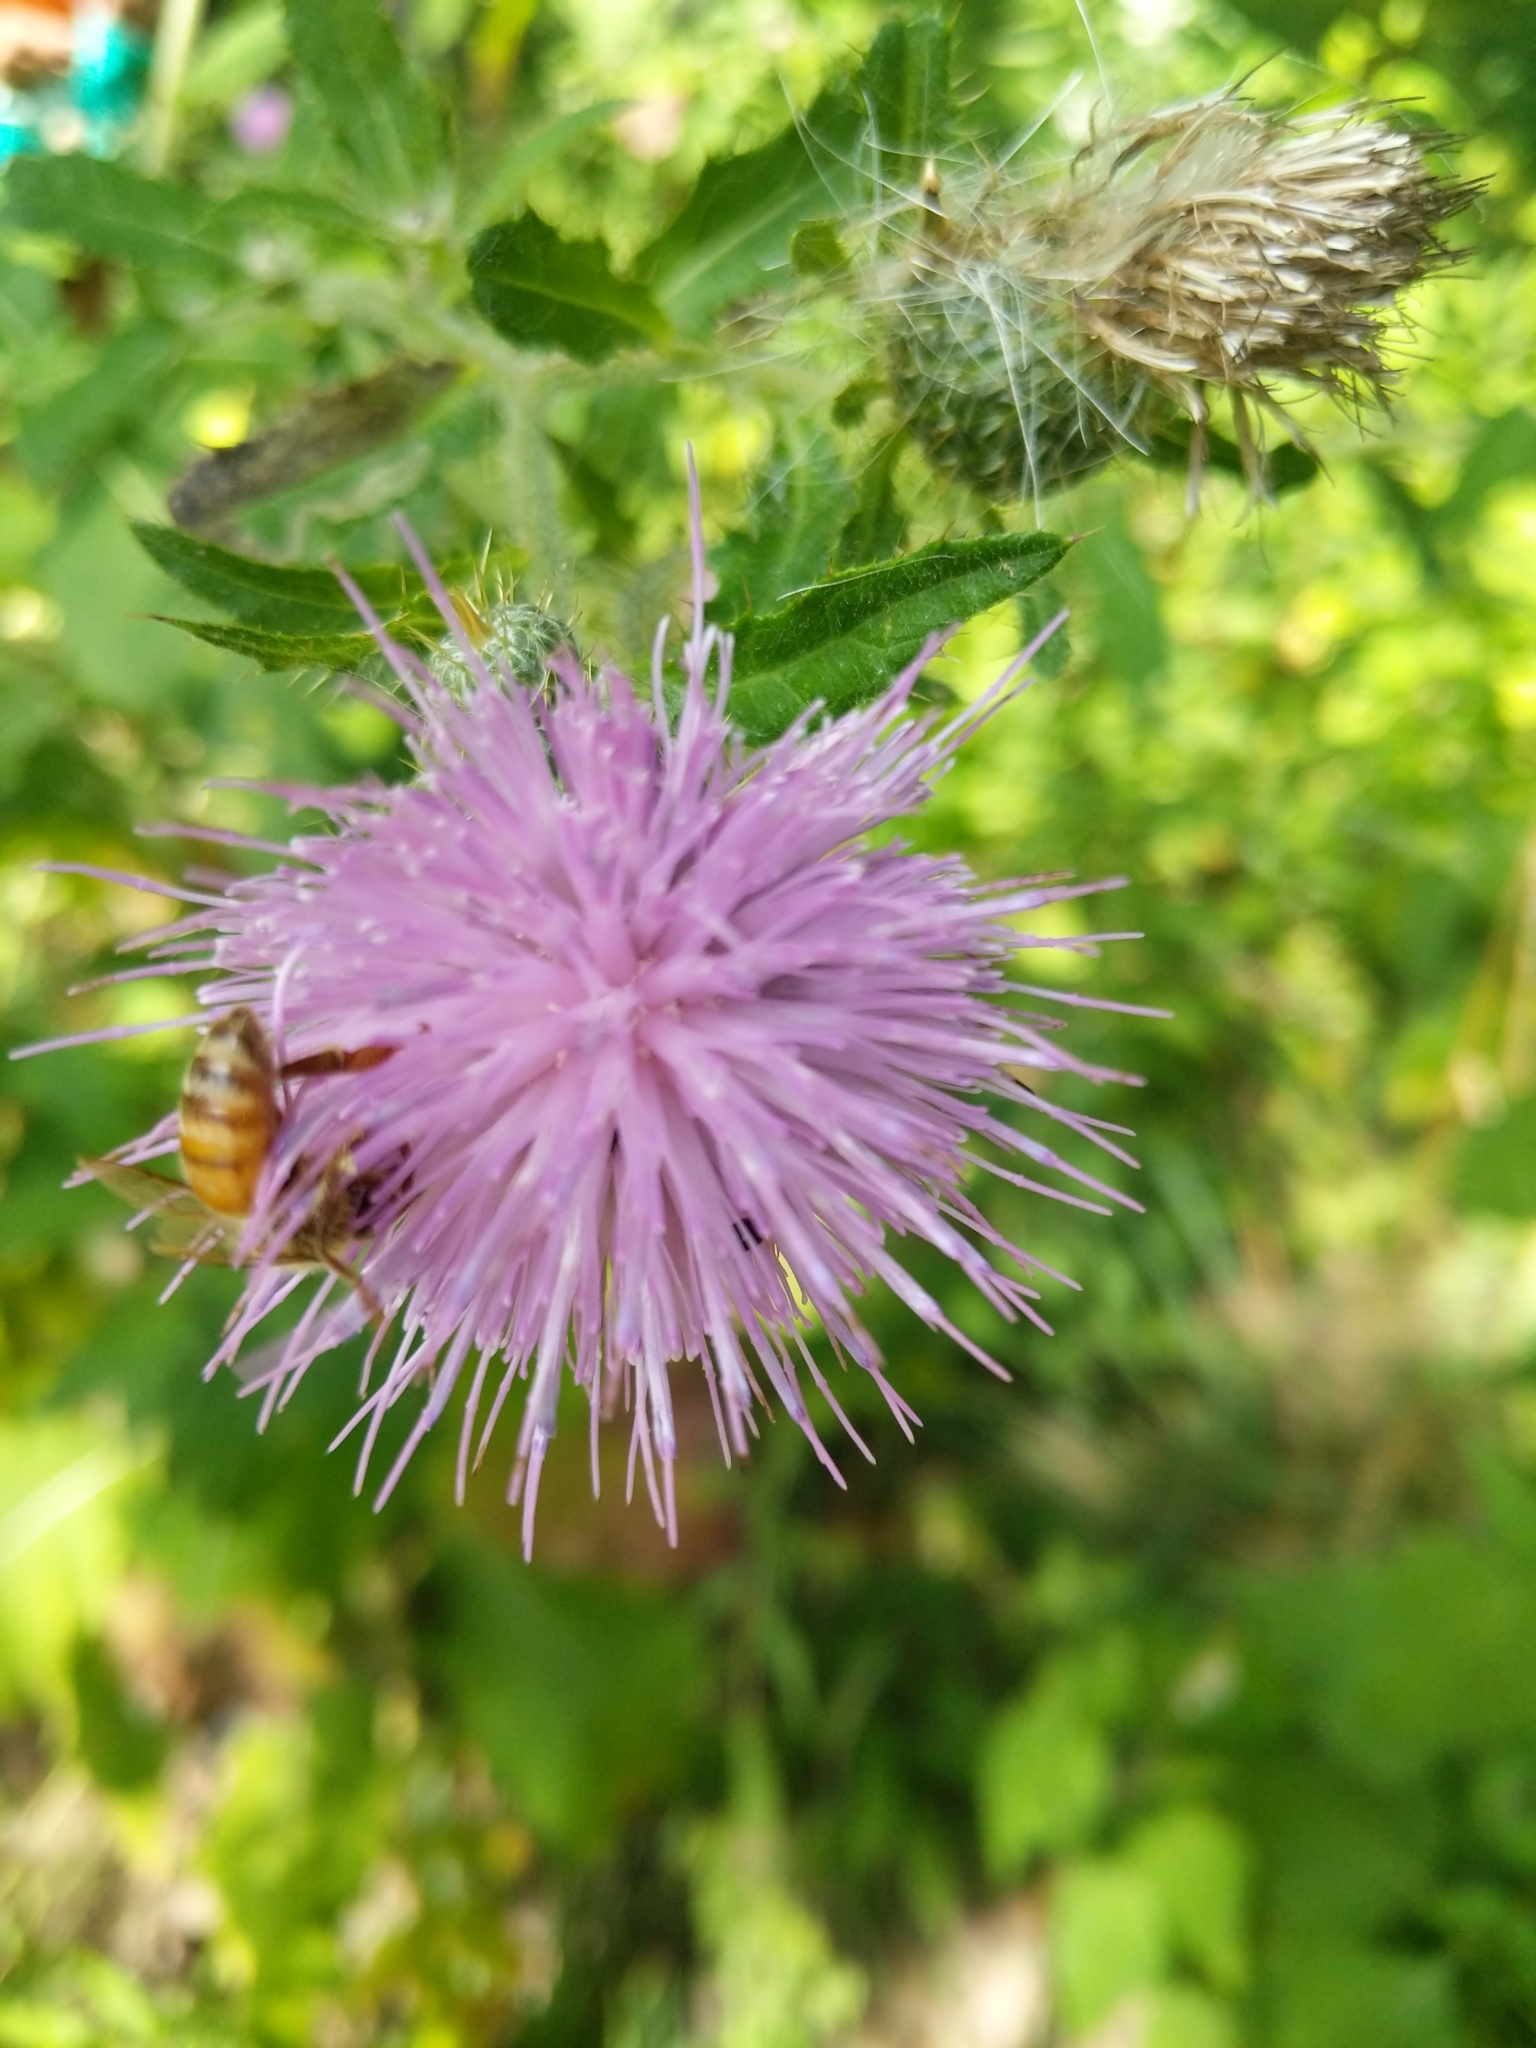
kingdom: Plantae
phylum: Tracheophyta
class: Magnoliopsida
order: Asterales
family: Asteraceae
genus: Cirsium
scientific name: Cirsium altissimum
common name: Roadside thistle
